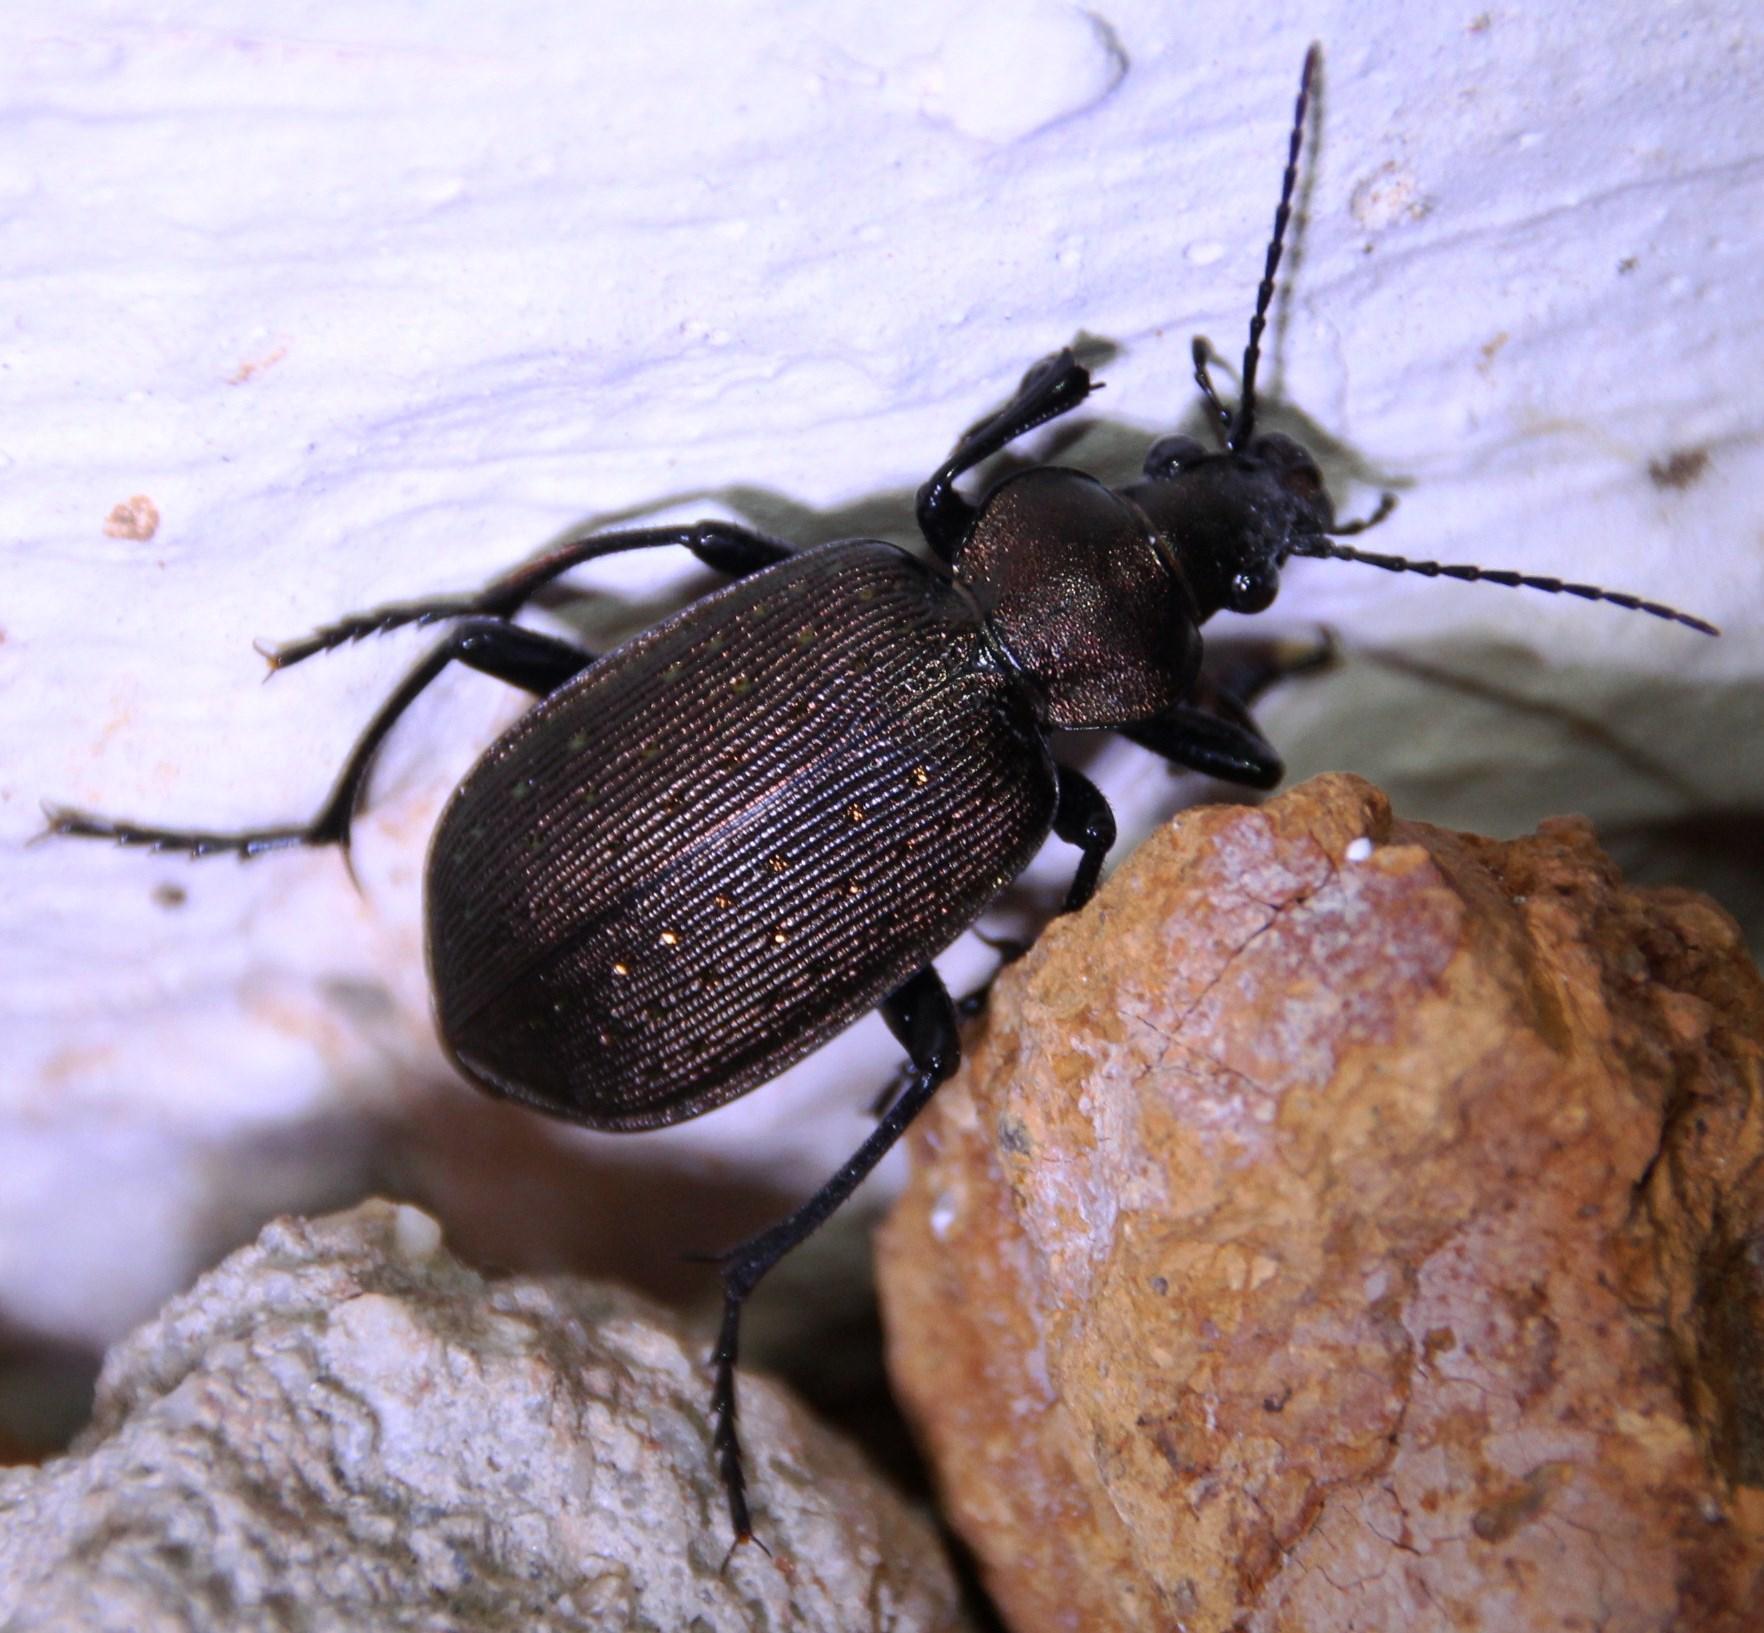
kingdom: Animalia
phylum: Arthropoda
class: Insecta
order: Coleoptera
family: Carabidae
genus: Calosoma
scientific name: Calosoma chlorostictum
